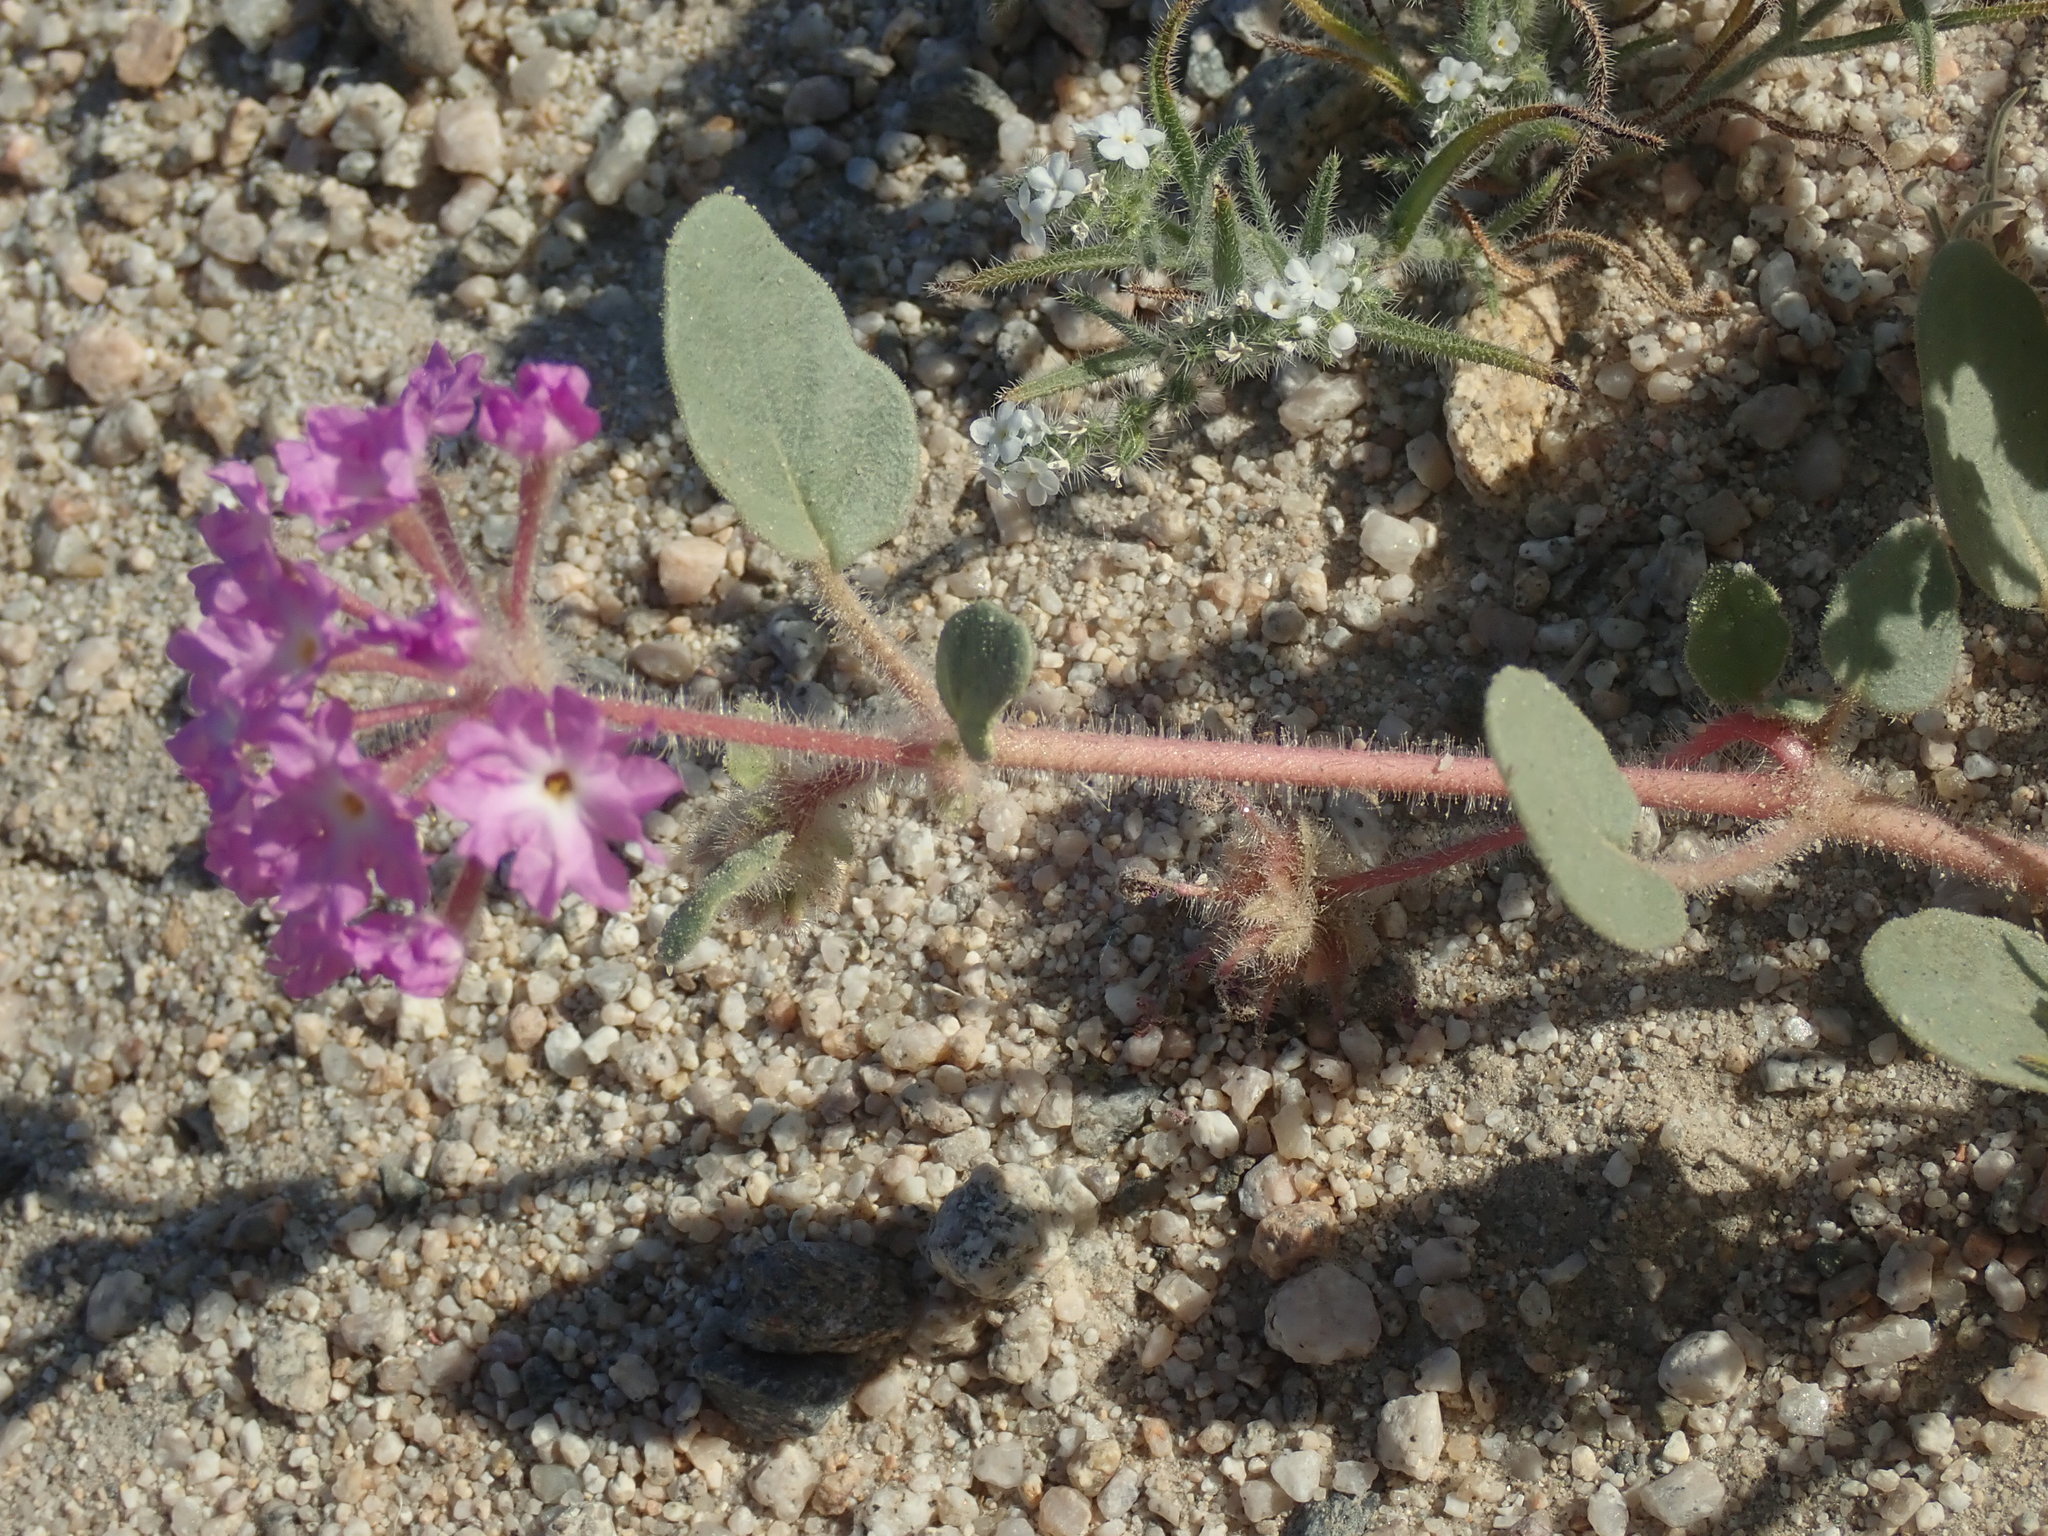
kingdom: Plantae
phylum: Tracheophyta
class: Magnoliopsida
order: Caryophyllales
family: Nyctaginaceae
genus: Abronia
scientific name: Abronia villosa
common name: Desert sand-verbena
